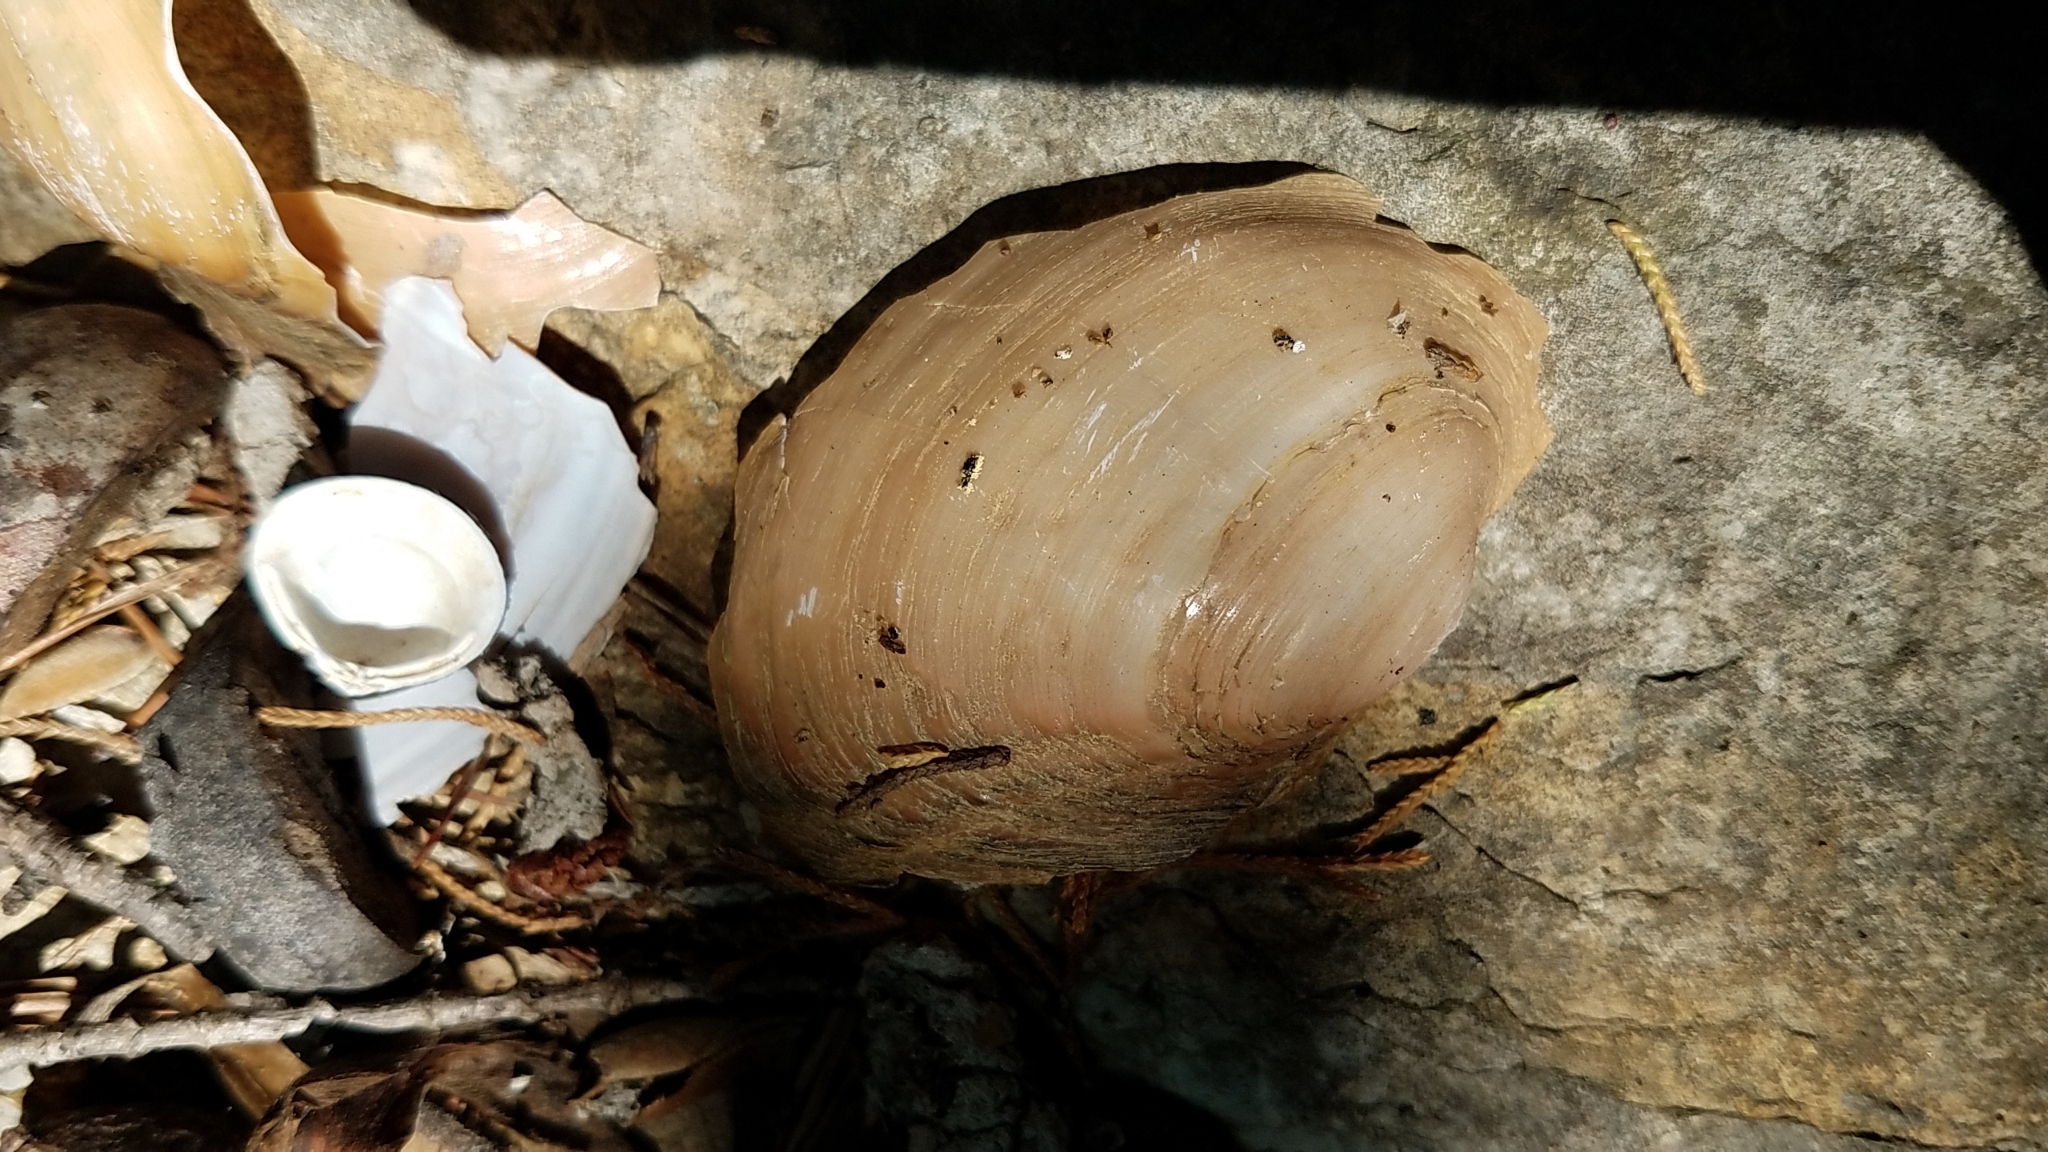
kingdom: Animalia
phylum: Mollusca
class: Bivalvia
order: Unionida
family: Unionidae
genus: Pyganodon
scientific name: Pyganodon grandis
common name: Giant floater
